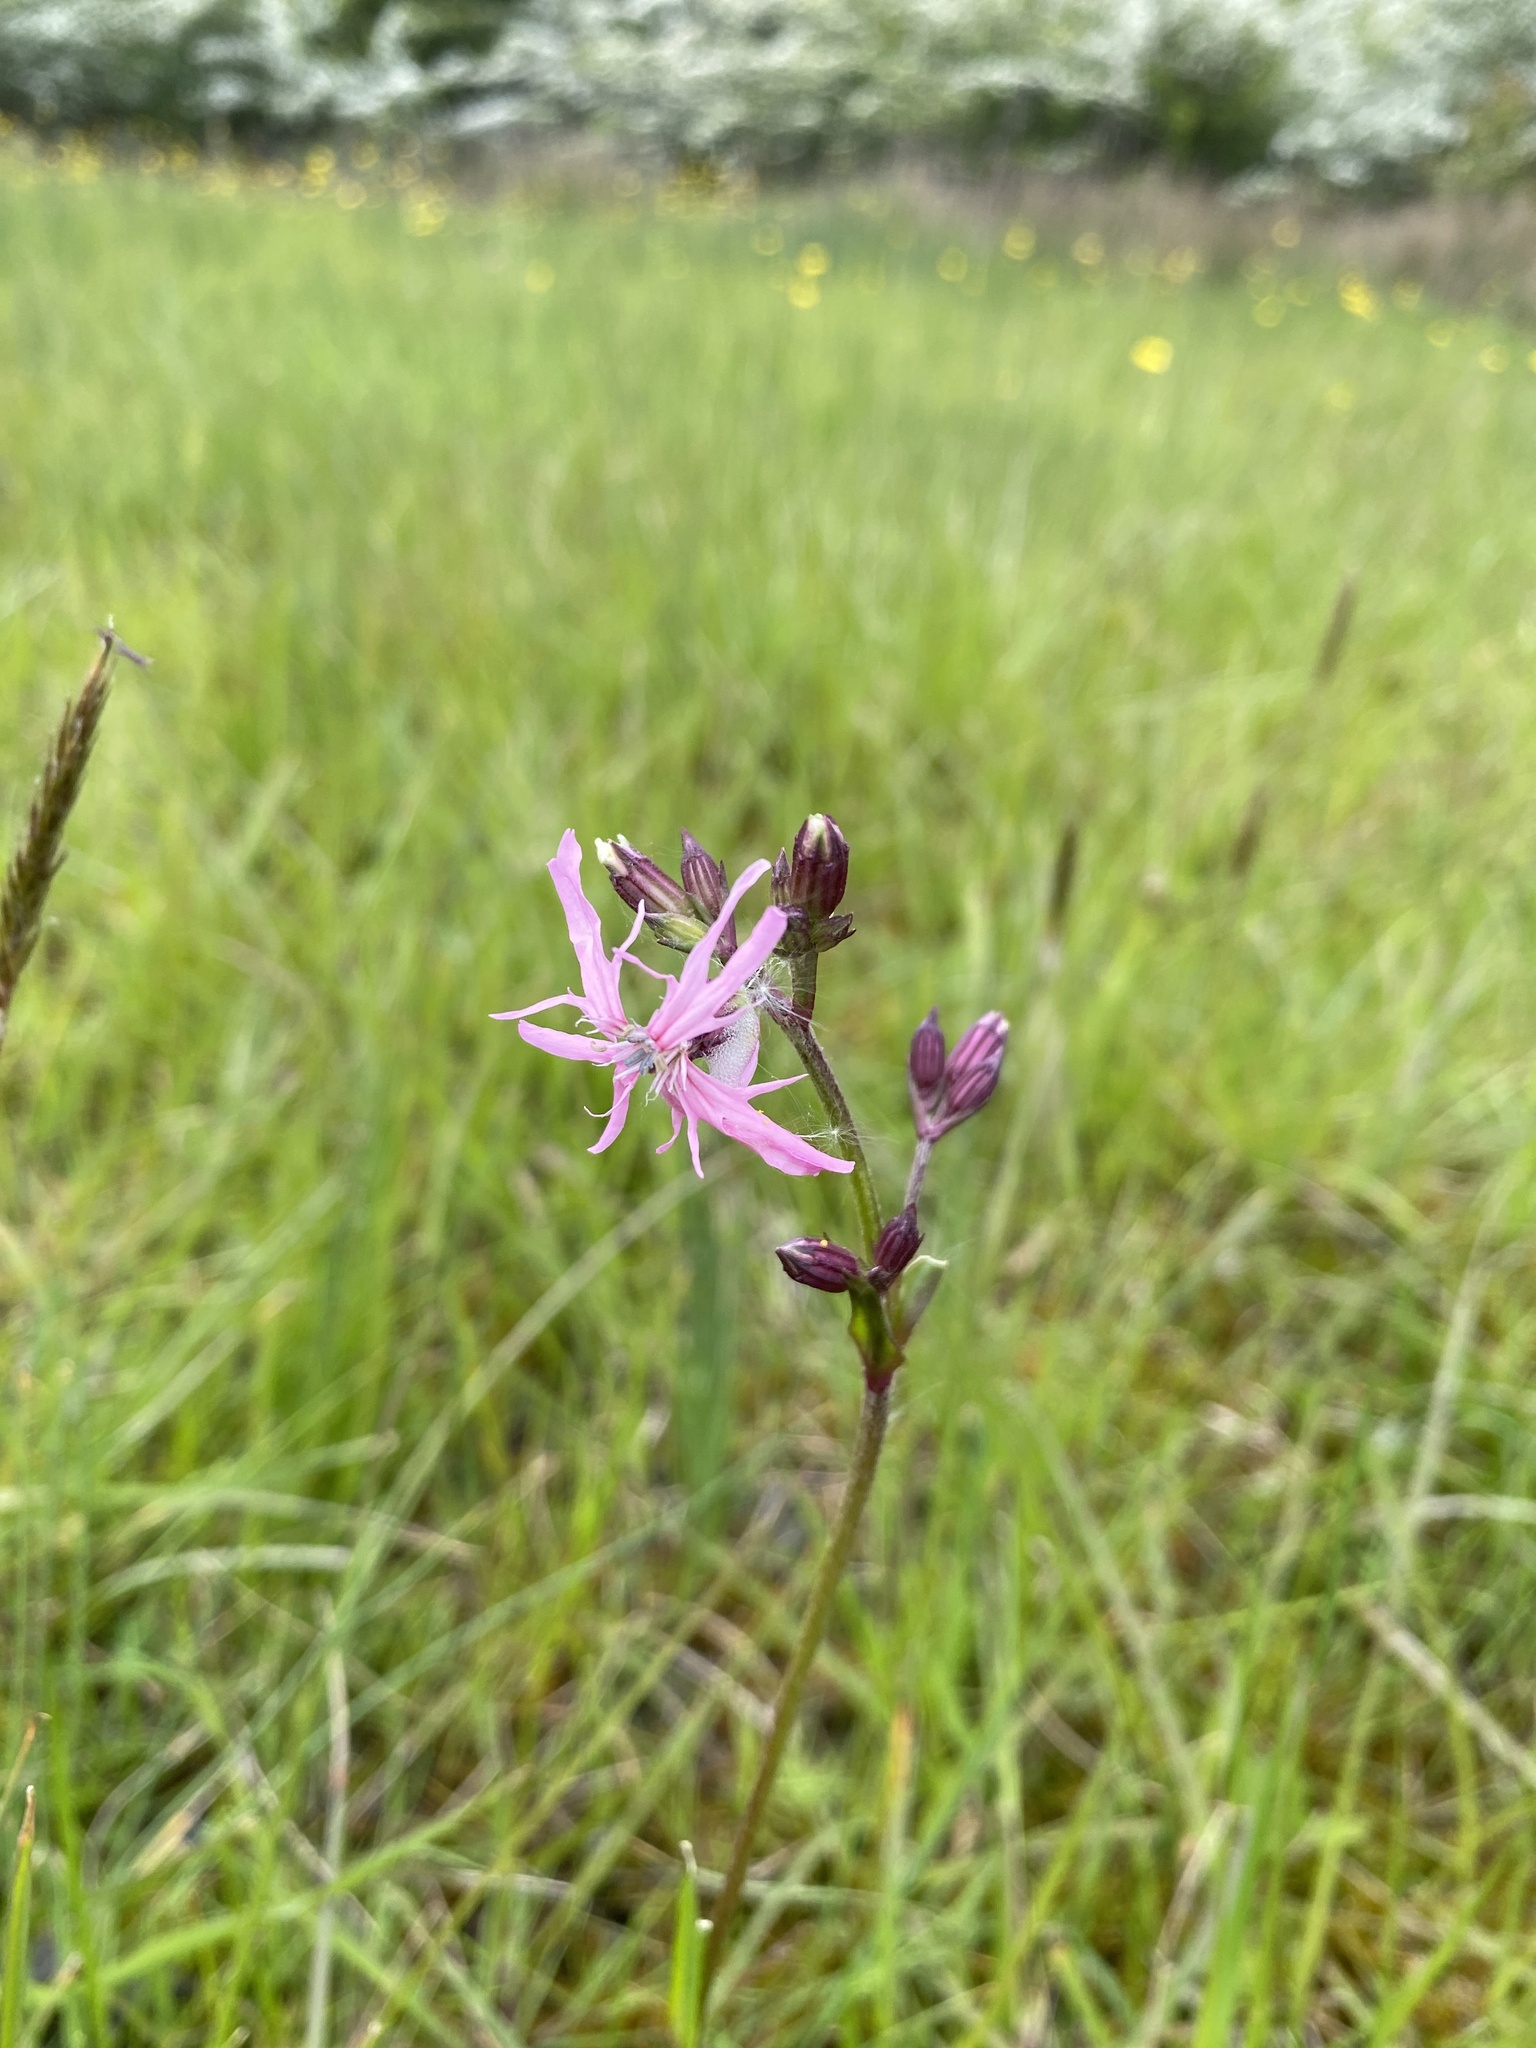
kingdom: Plantae
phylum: Tracheophyta
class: Magnoliopsida
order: Caryophyllales
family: Caryophyllaceae
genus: Silene
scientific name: Silene flos-cuculi
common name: Ragged-robin
